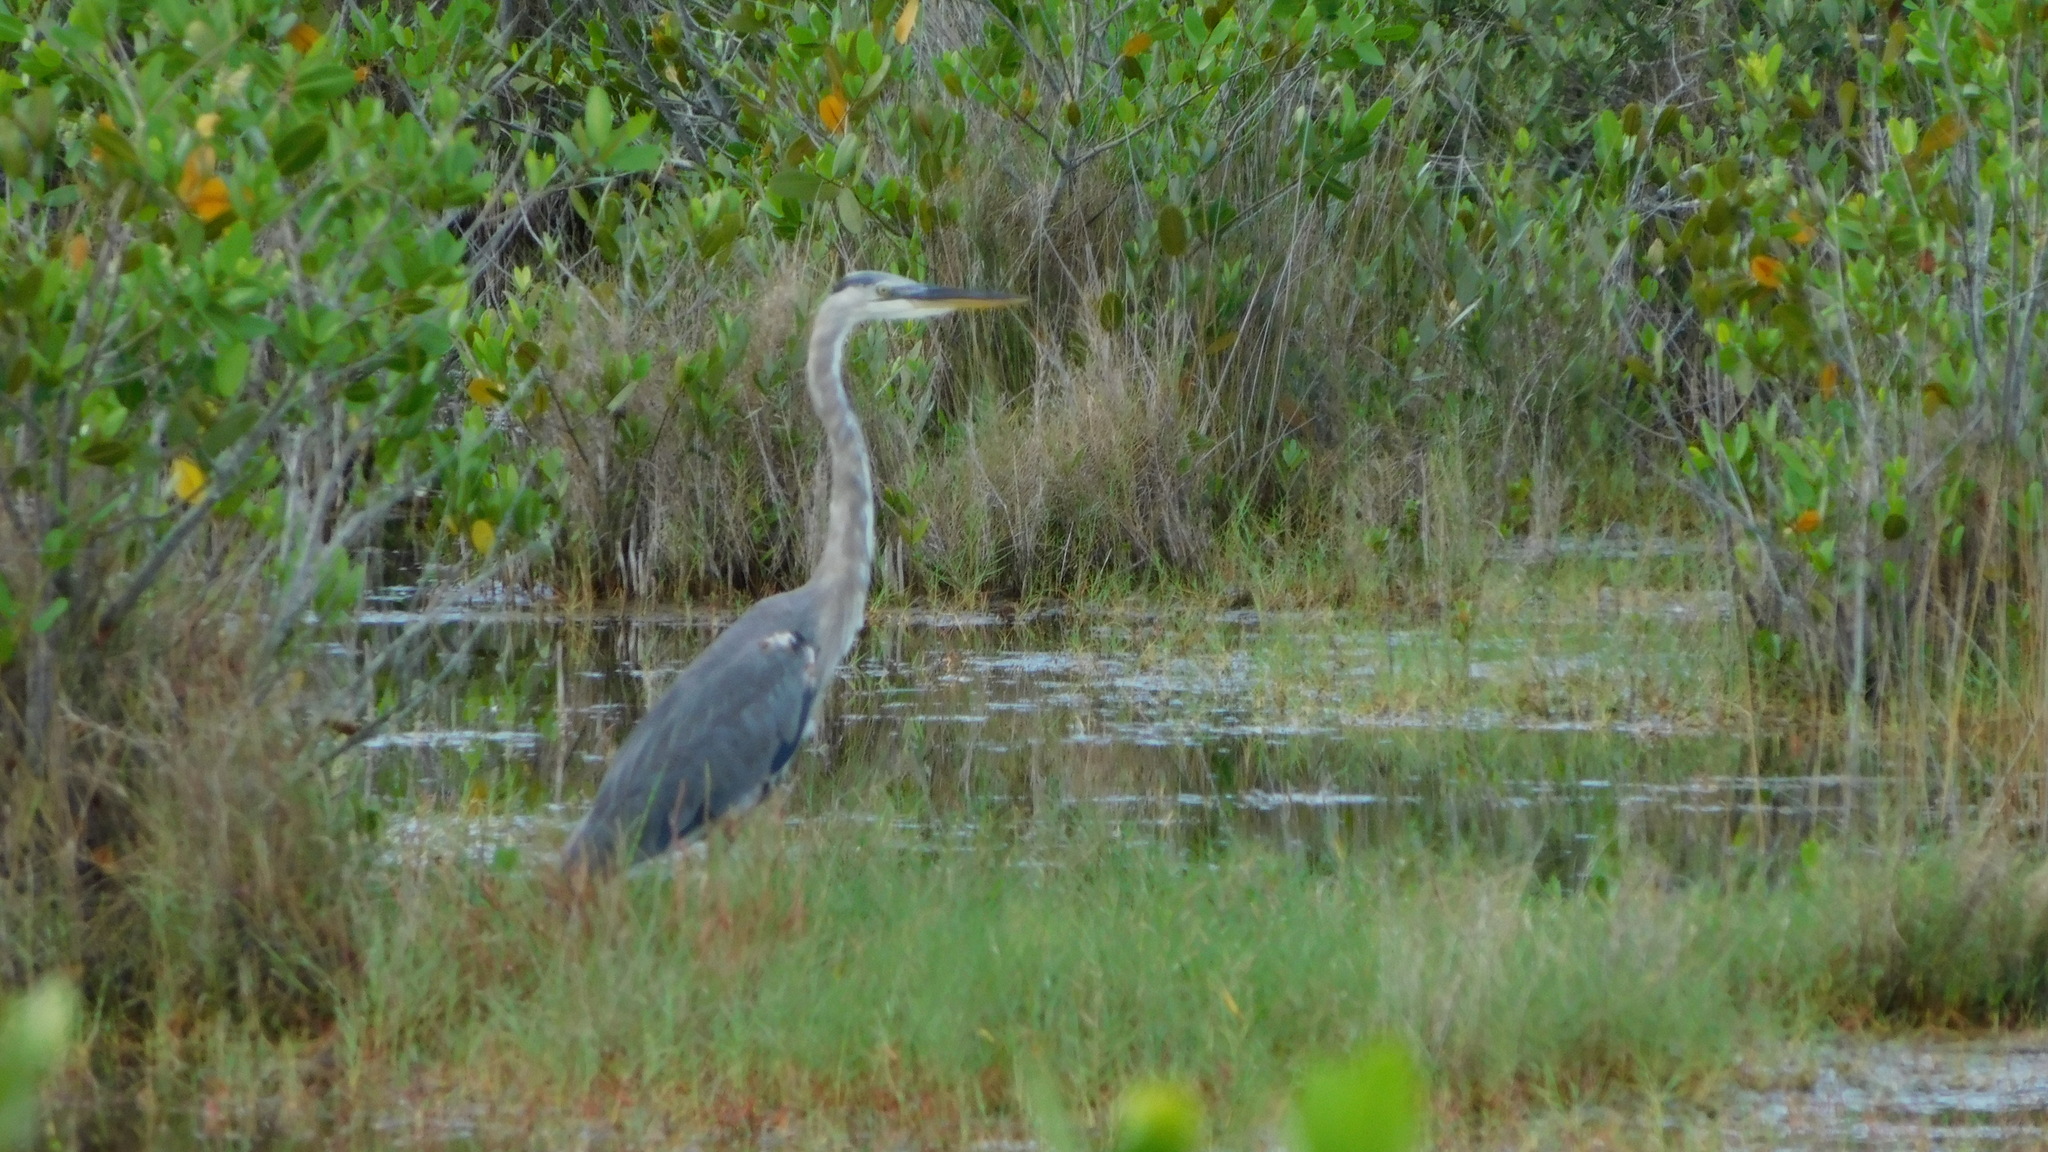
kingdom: Animalia
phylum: Chordata
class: Aves
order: Pelecaniformes
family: Ardeidae
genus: Ardea
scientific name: Ardea herodias
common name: Great blue heron
